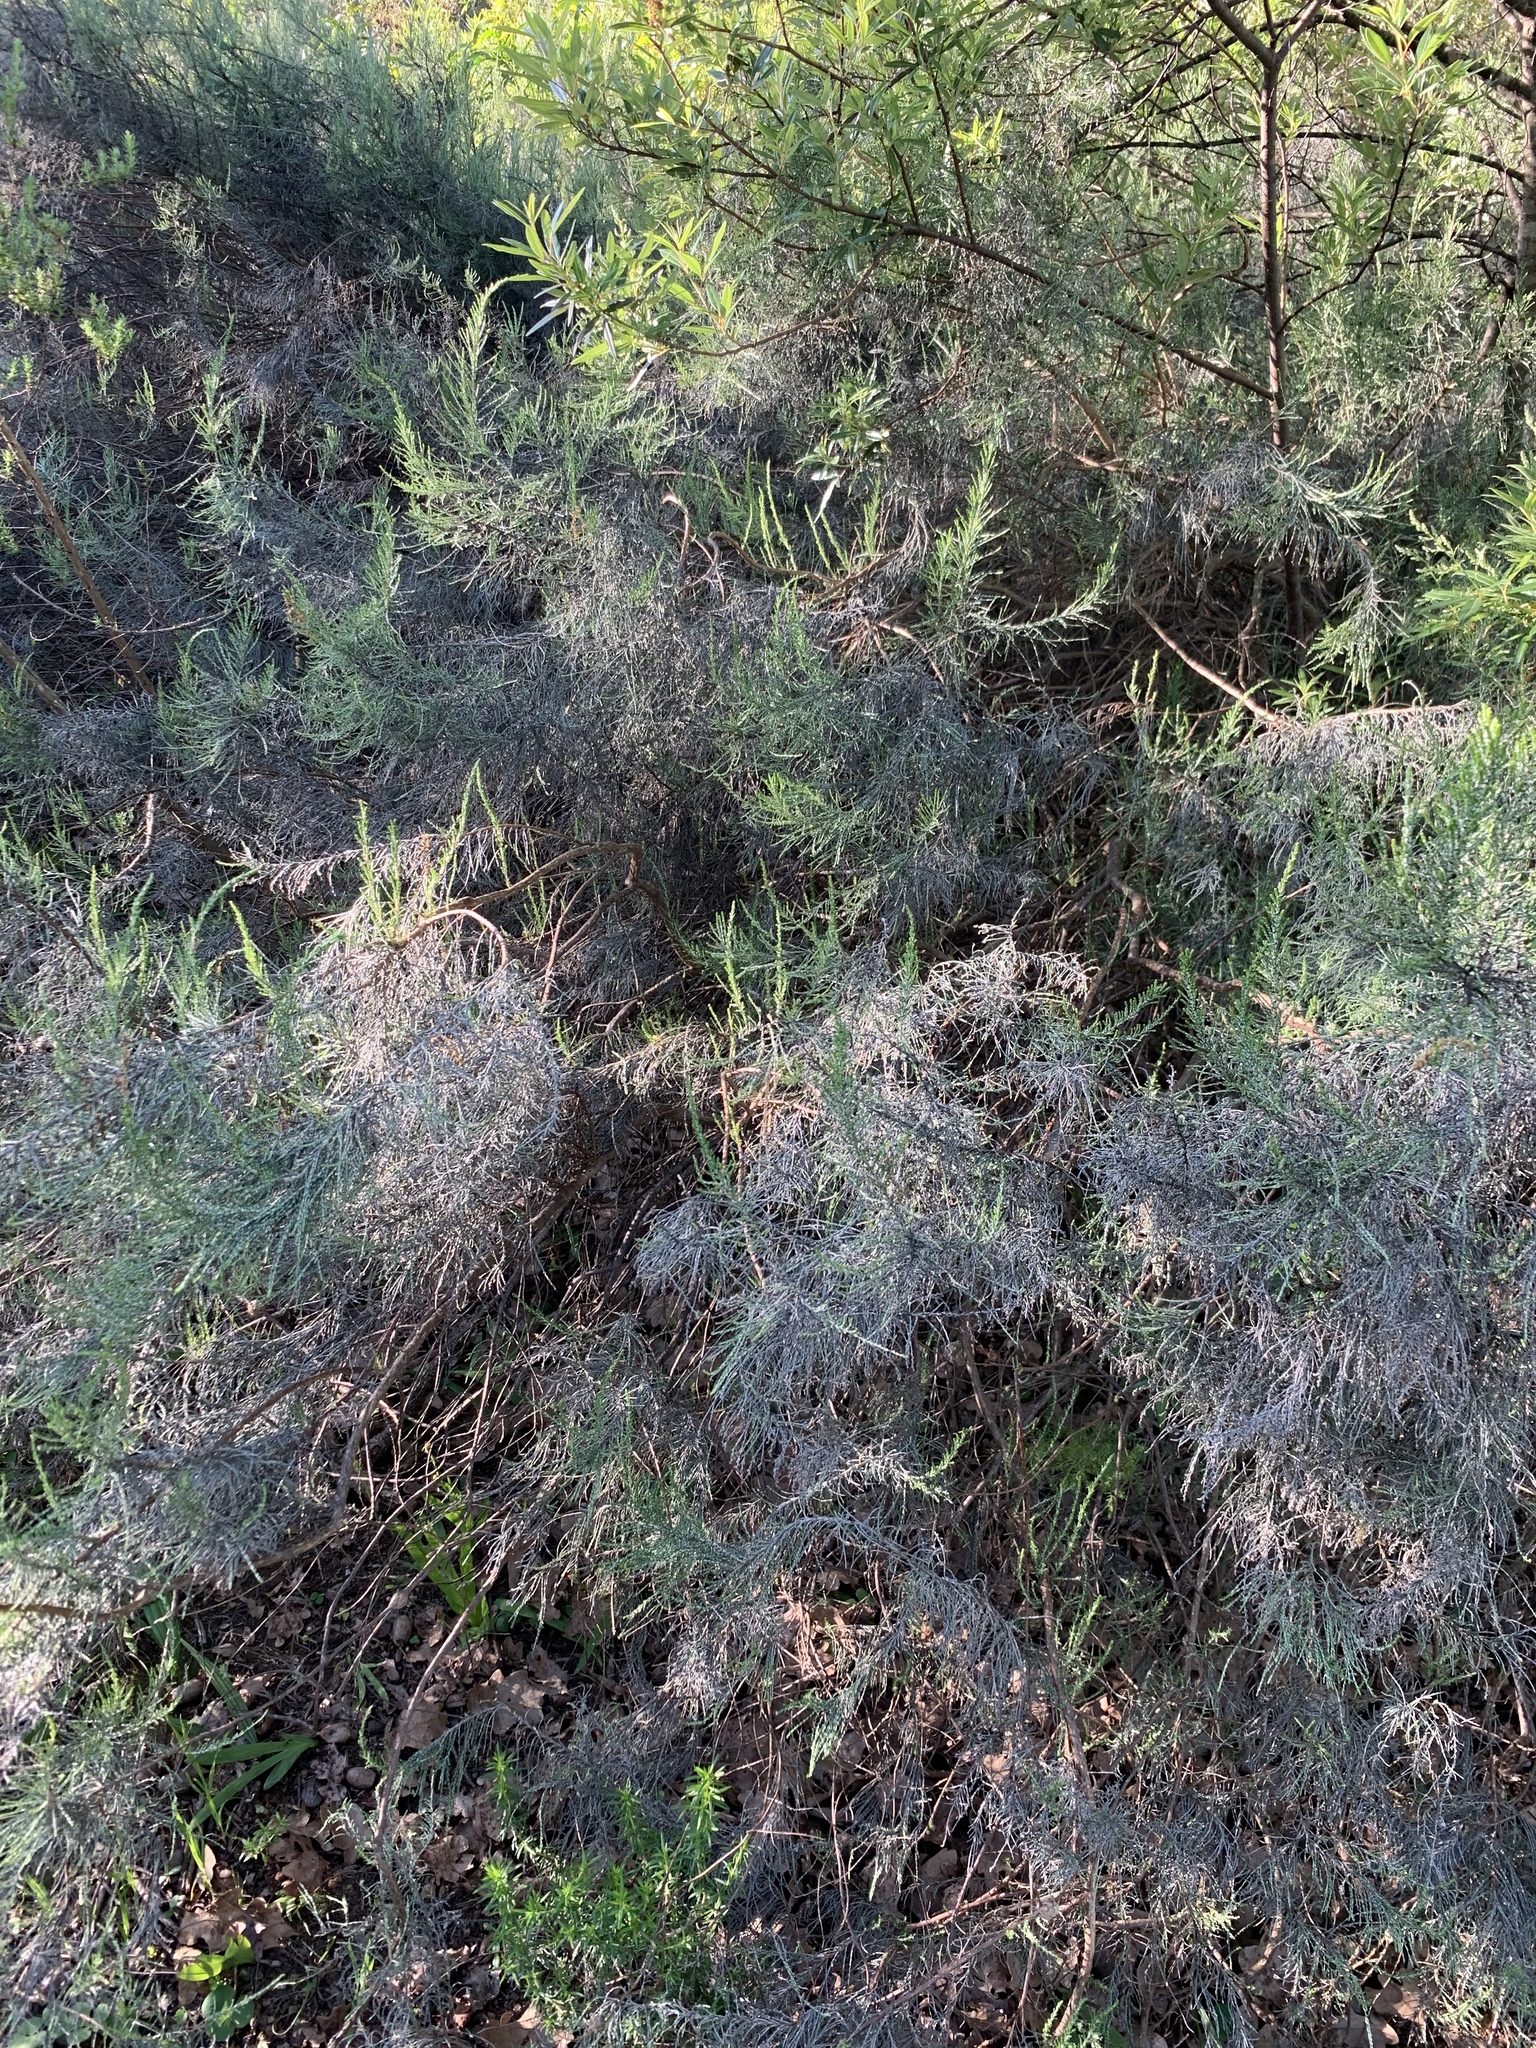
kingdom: Plantae
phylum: Tracheophyta
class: Magnoliopsida
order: Asterales
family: Asteraceae
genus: Dicerothamnus
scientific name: Dicerothamnus rhinocerotis
